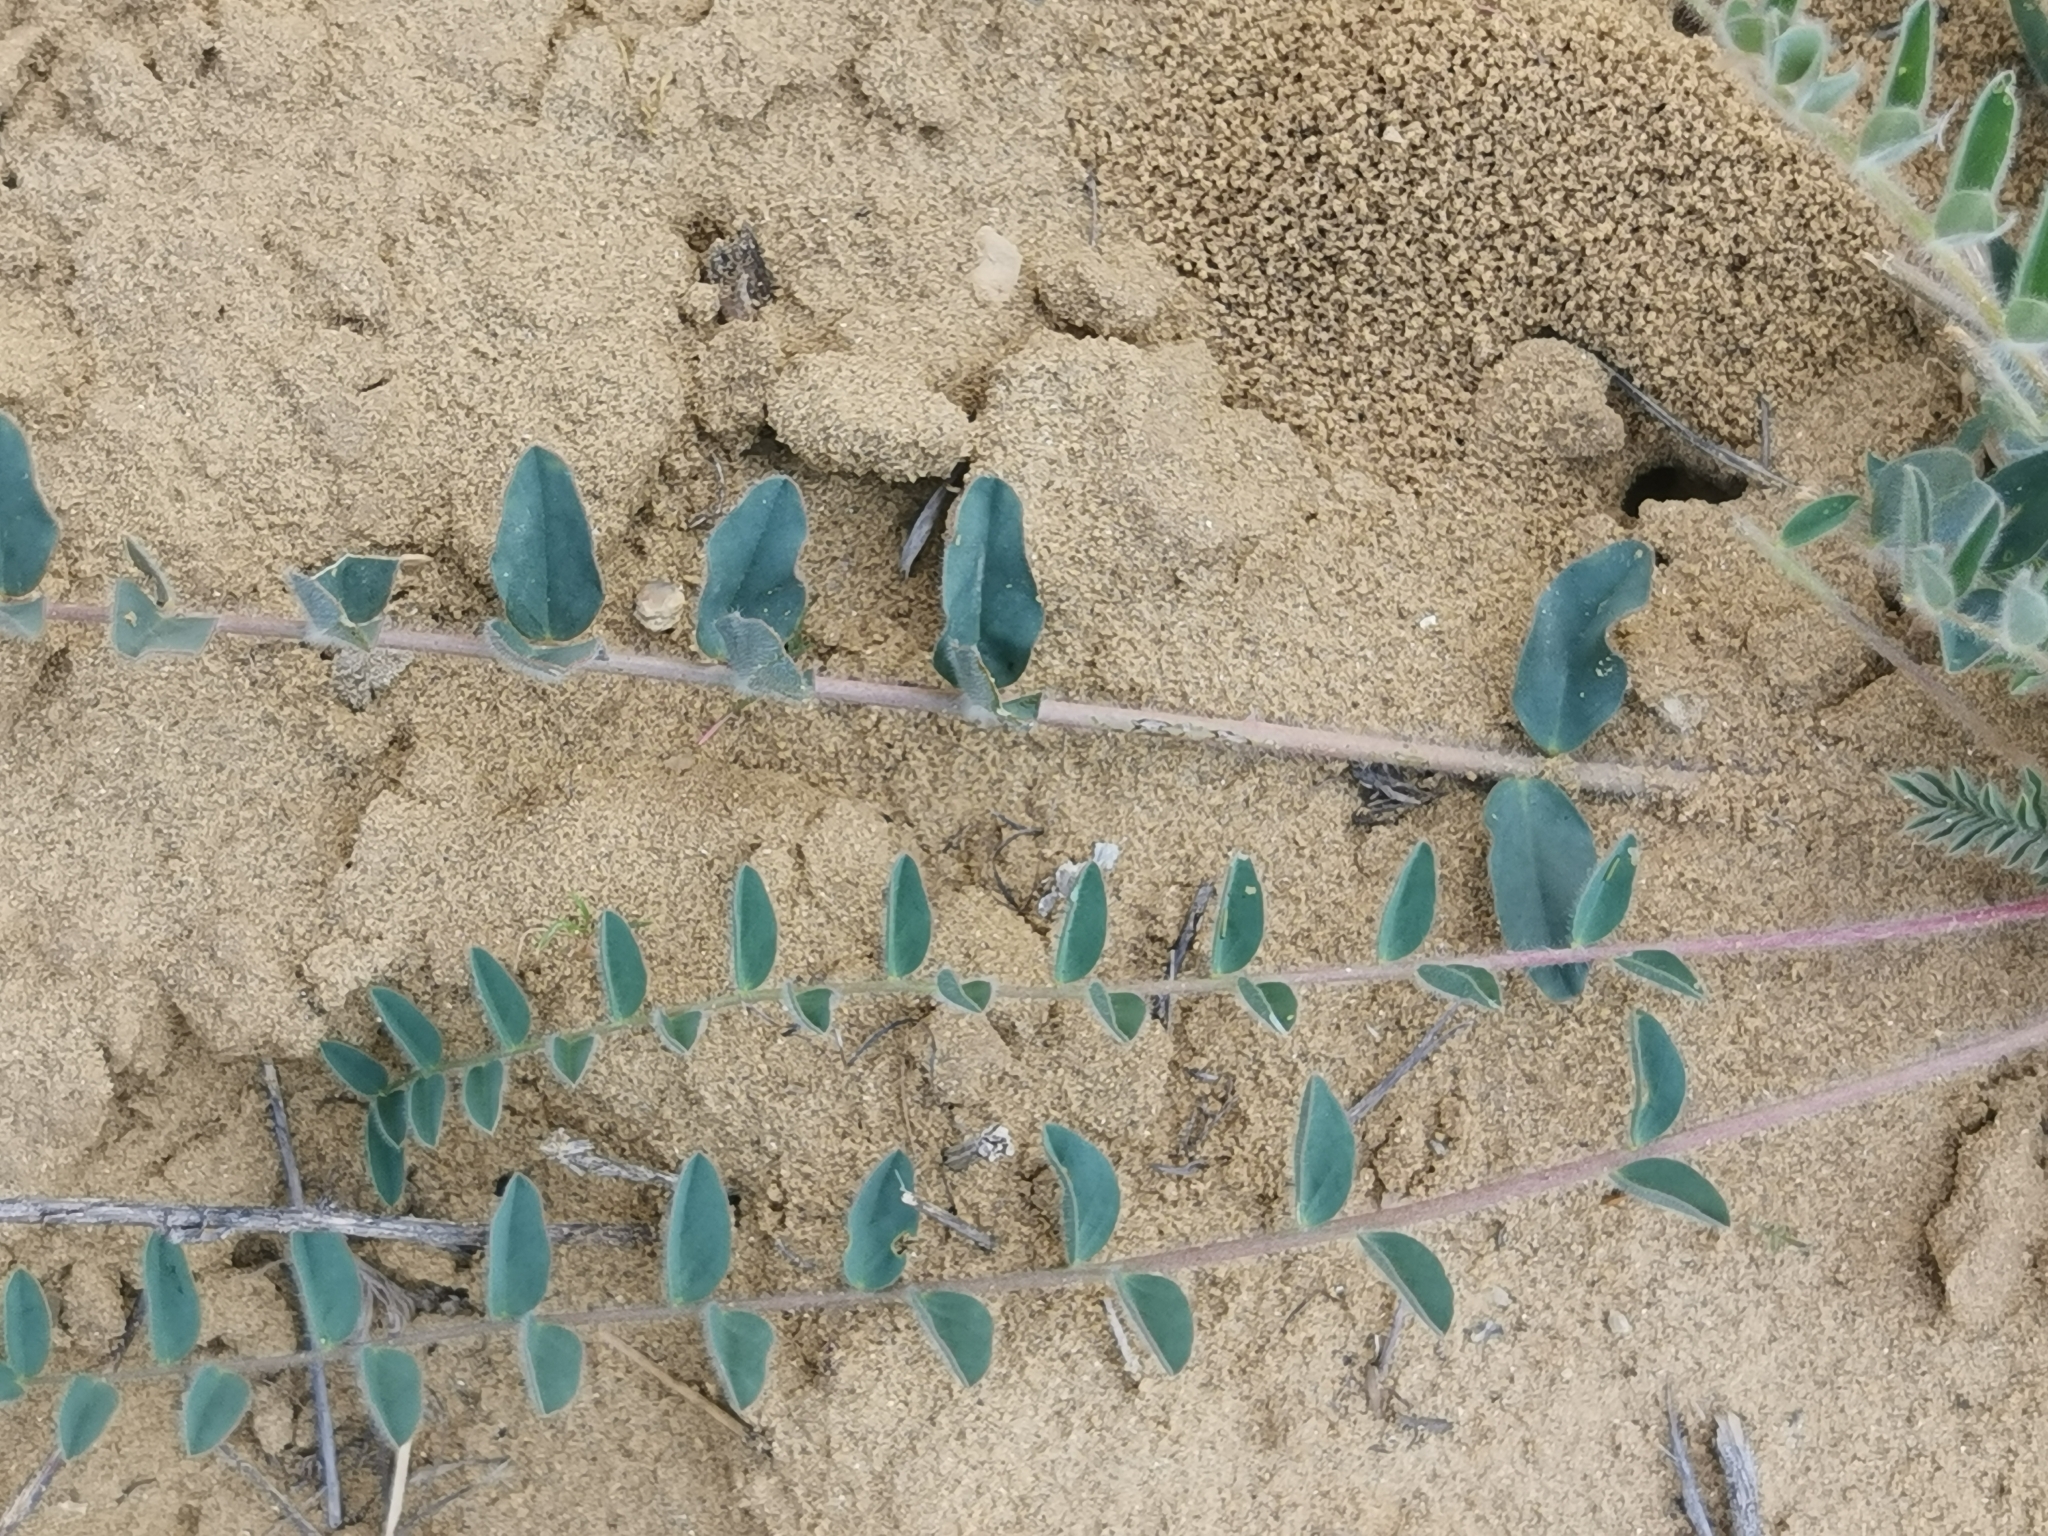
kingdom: Plantae
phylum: Tracheophyta
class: Magnoliopsida
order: Fabales
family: Fabaceae
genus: Astragalus
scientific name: Astragalus longipetalus
